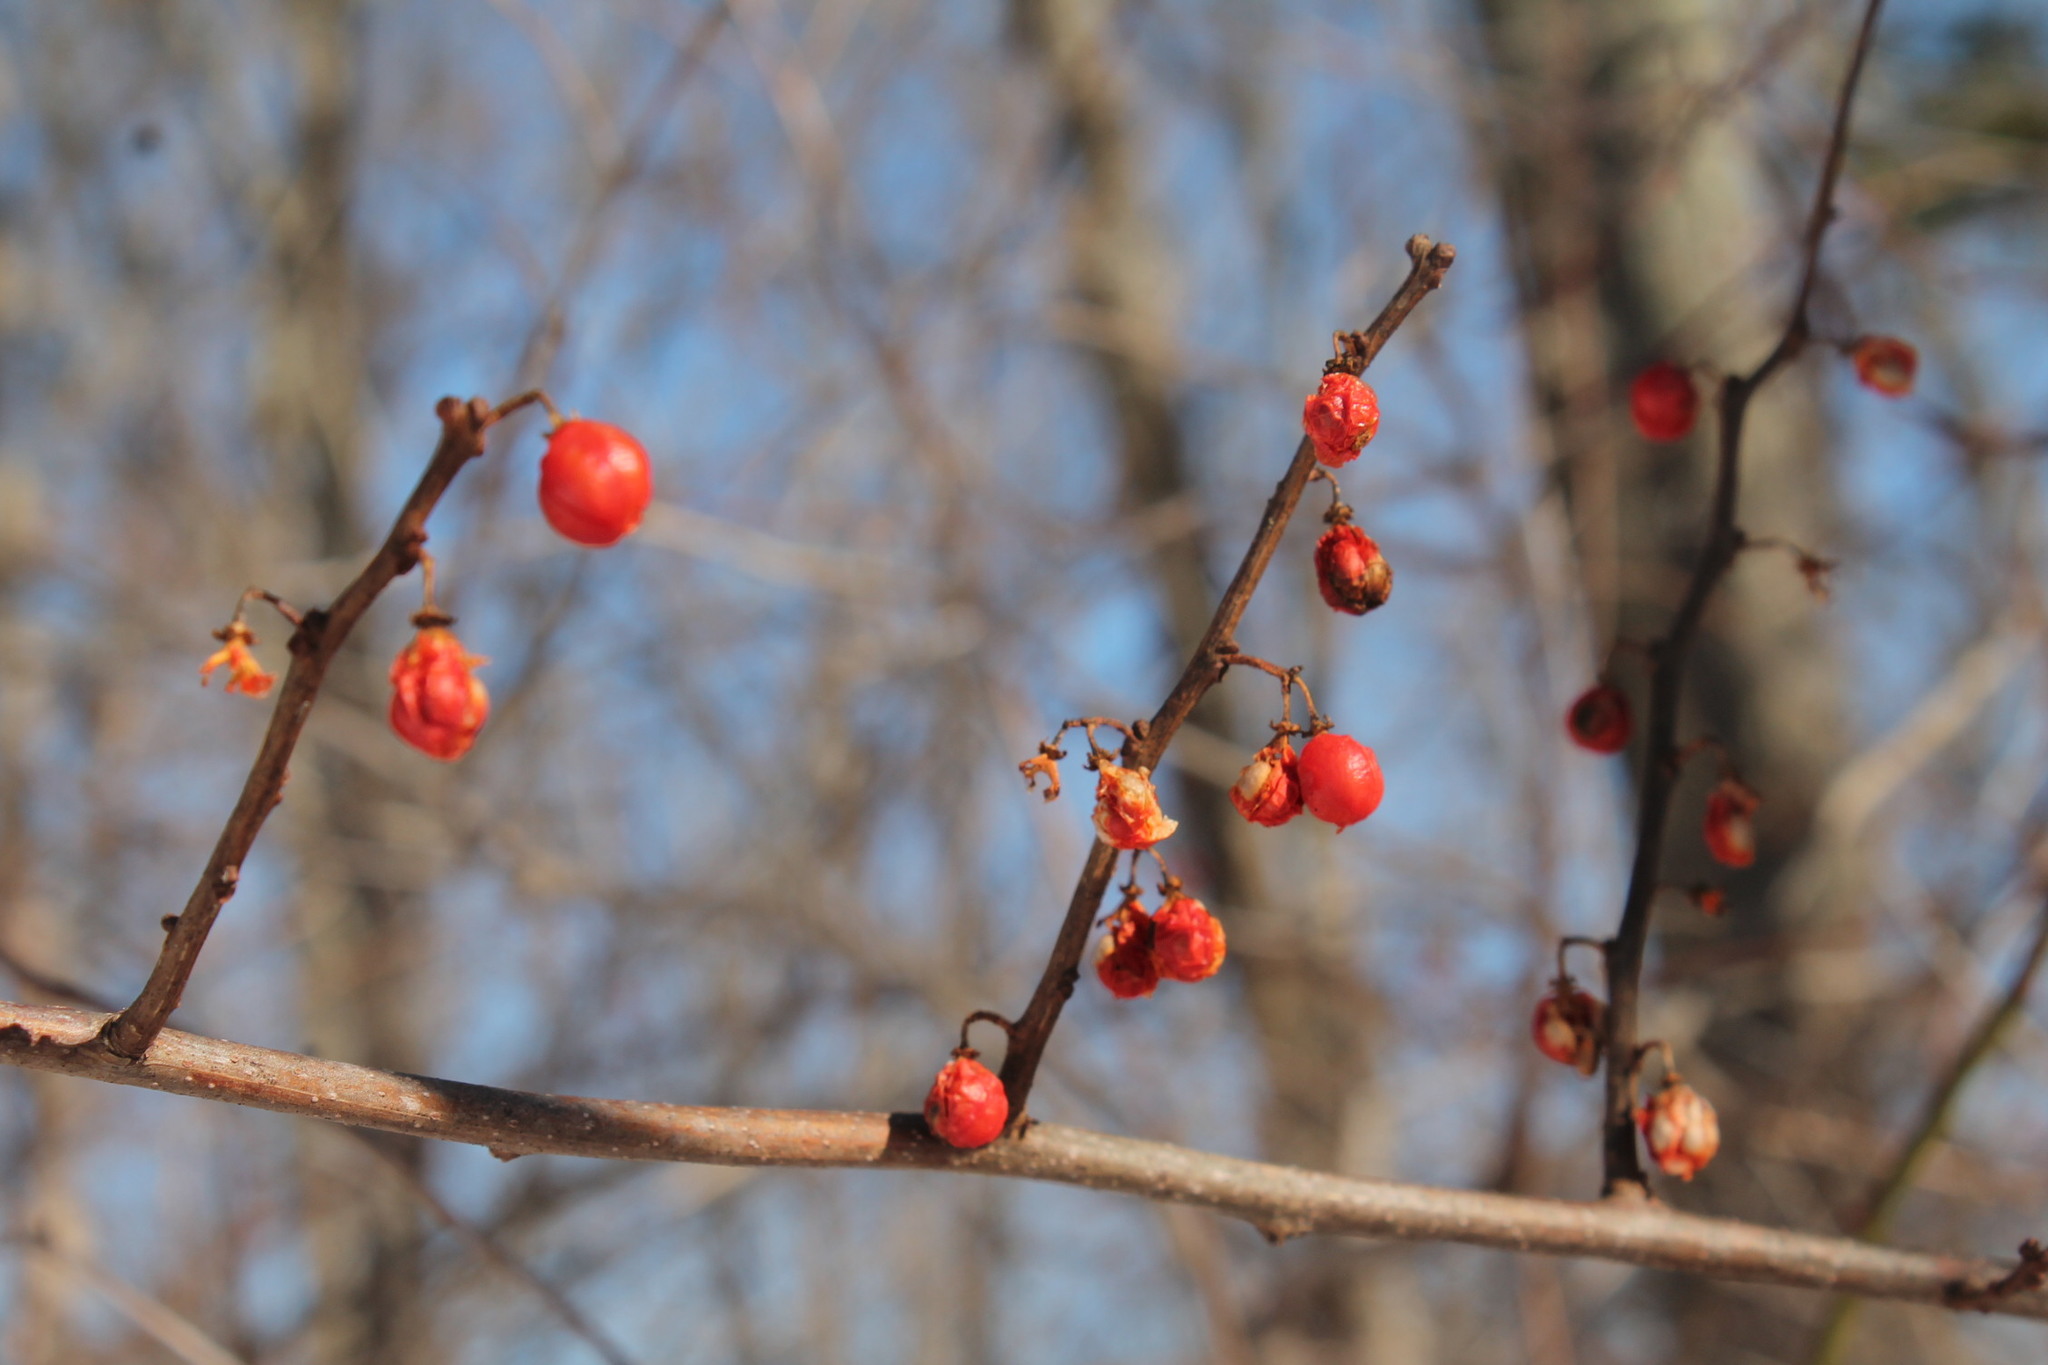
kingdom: Plantae
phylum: Tracheophyta
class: Magnoliopsida
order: Celastrales
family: Celastraceae
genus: Celastrus
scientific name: Celastrus orbiculatus
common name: Oriental bittersweet
